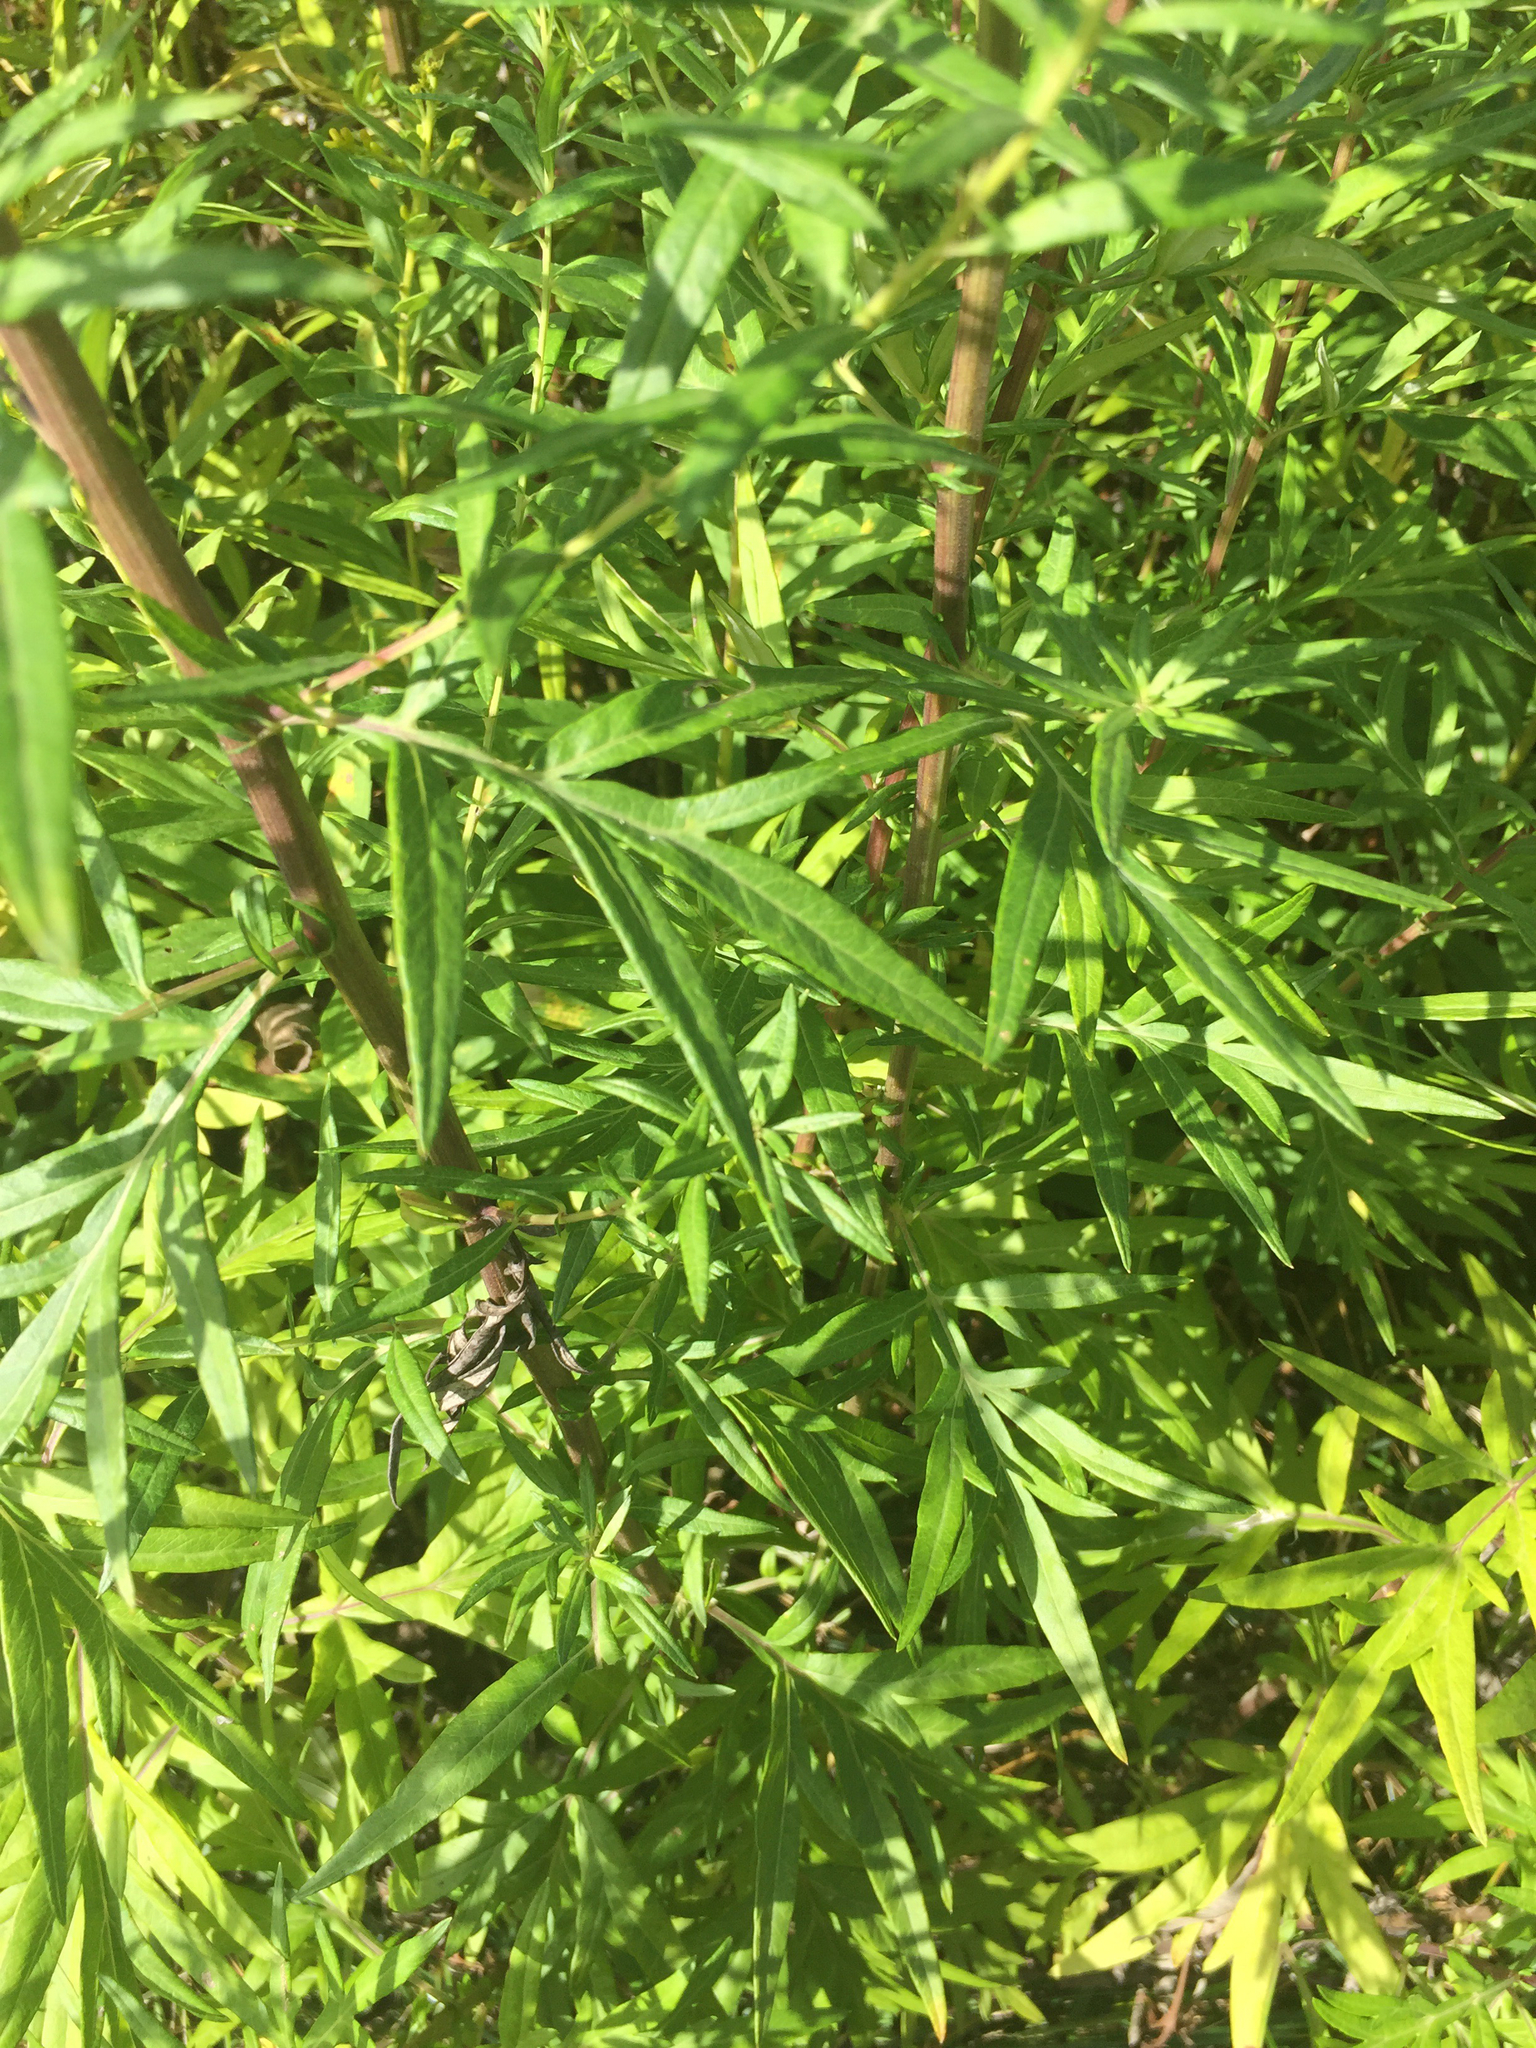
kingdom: Plantae
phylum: Tracheophyta
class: Magnoliopsida
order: Asterales
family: Asteraceae
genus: Artemisia
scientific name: Artemisia vulgaris
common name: Mugwort
